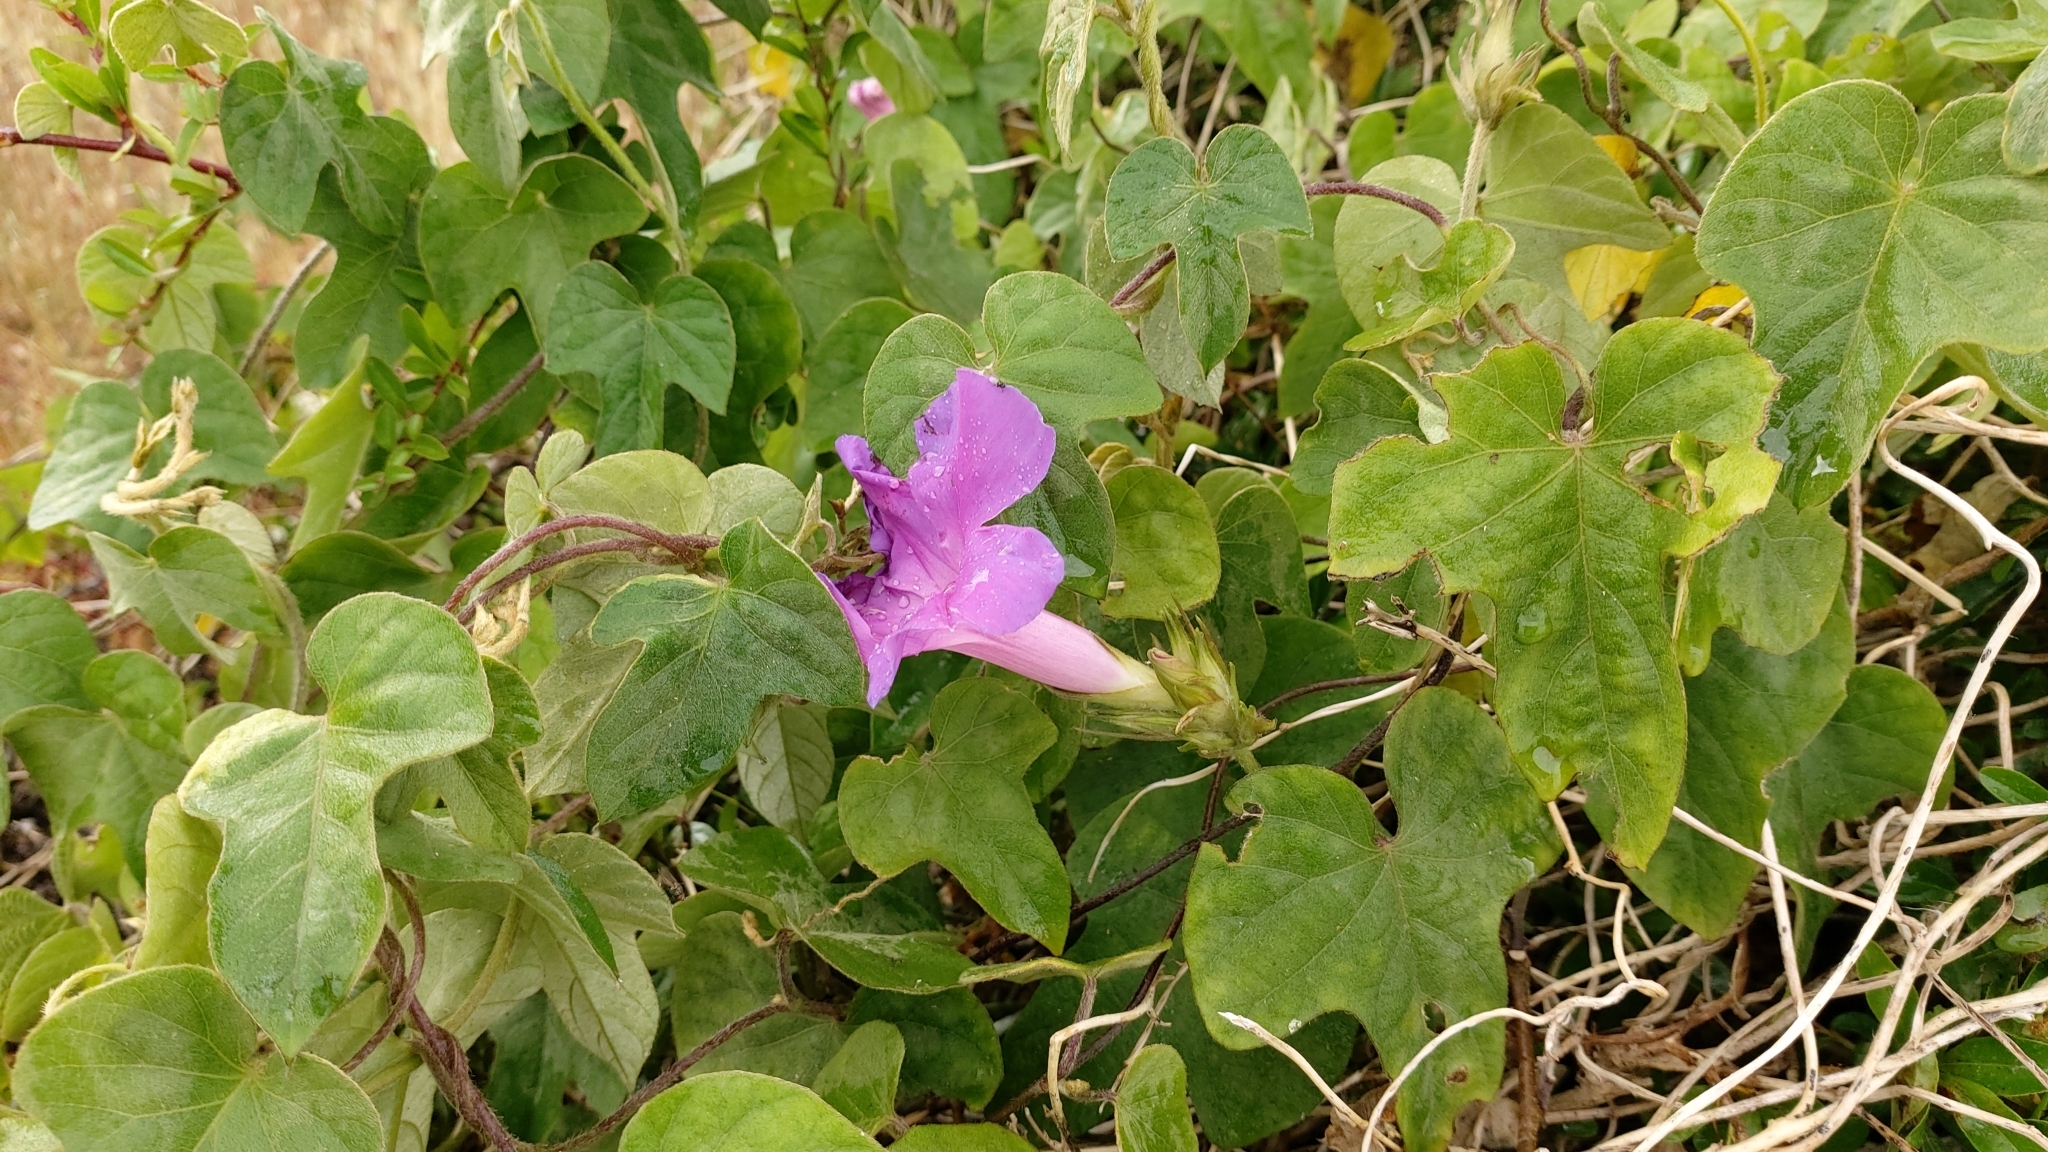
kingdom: Plantae
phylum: Tracheophyta
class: Magnoliopsida
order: Solanales
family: Convolvulaceae
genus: Ipomoea
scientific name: Ipomoea indica
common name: Blue dawnflower
